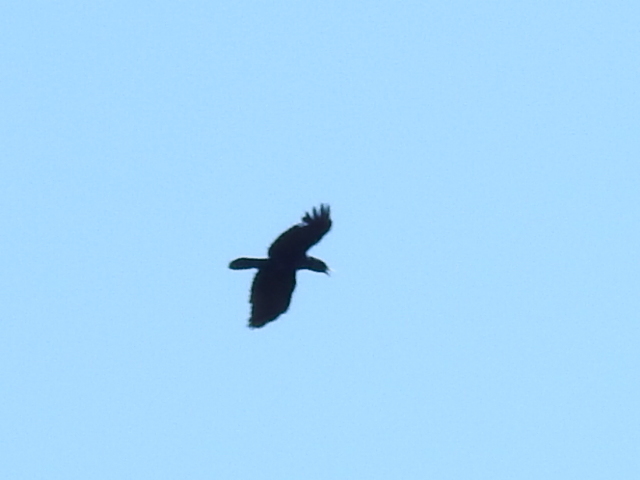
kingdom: Animalia
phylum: Chordata
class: Aves
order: Passeriformes
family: Corvidae
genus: Corvus
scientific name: Corvus ossifragus
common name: Fish crow
